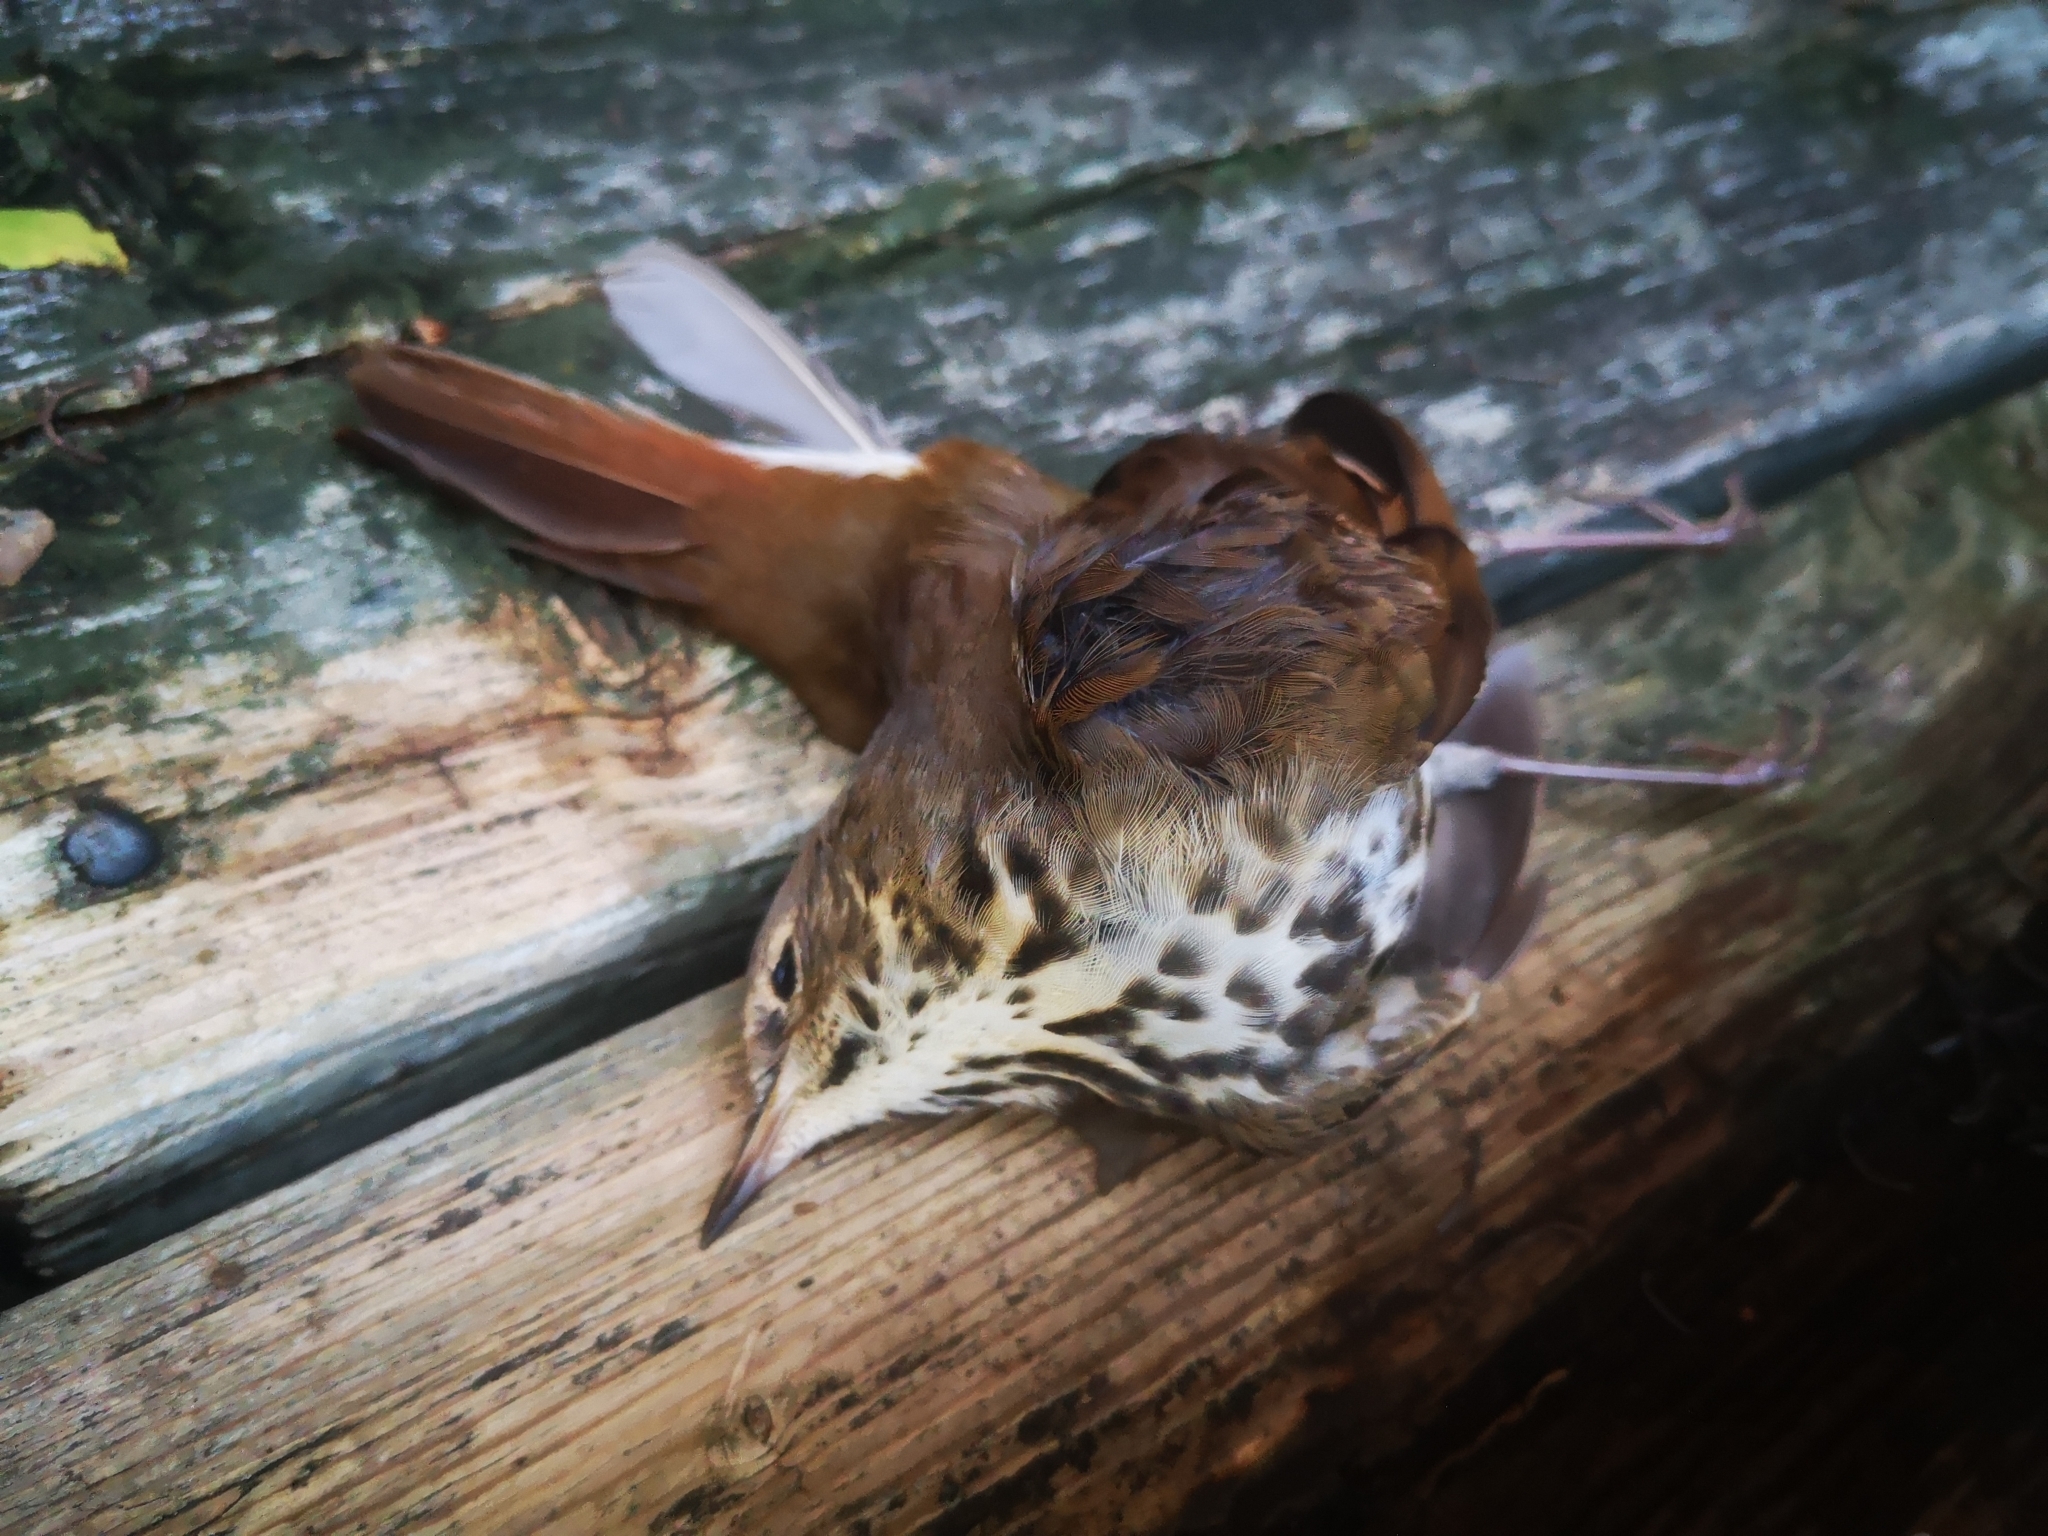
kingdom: Animalia
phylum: Chordata
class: Aves
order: Passeriformes
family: Turdidae
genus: Catharus
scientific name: Catharus guttatus
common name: Hermit thrush
